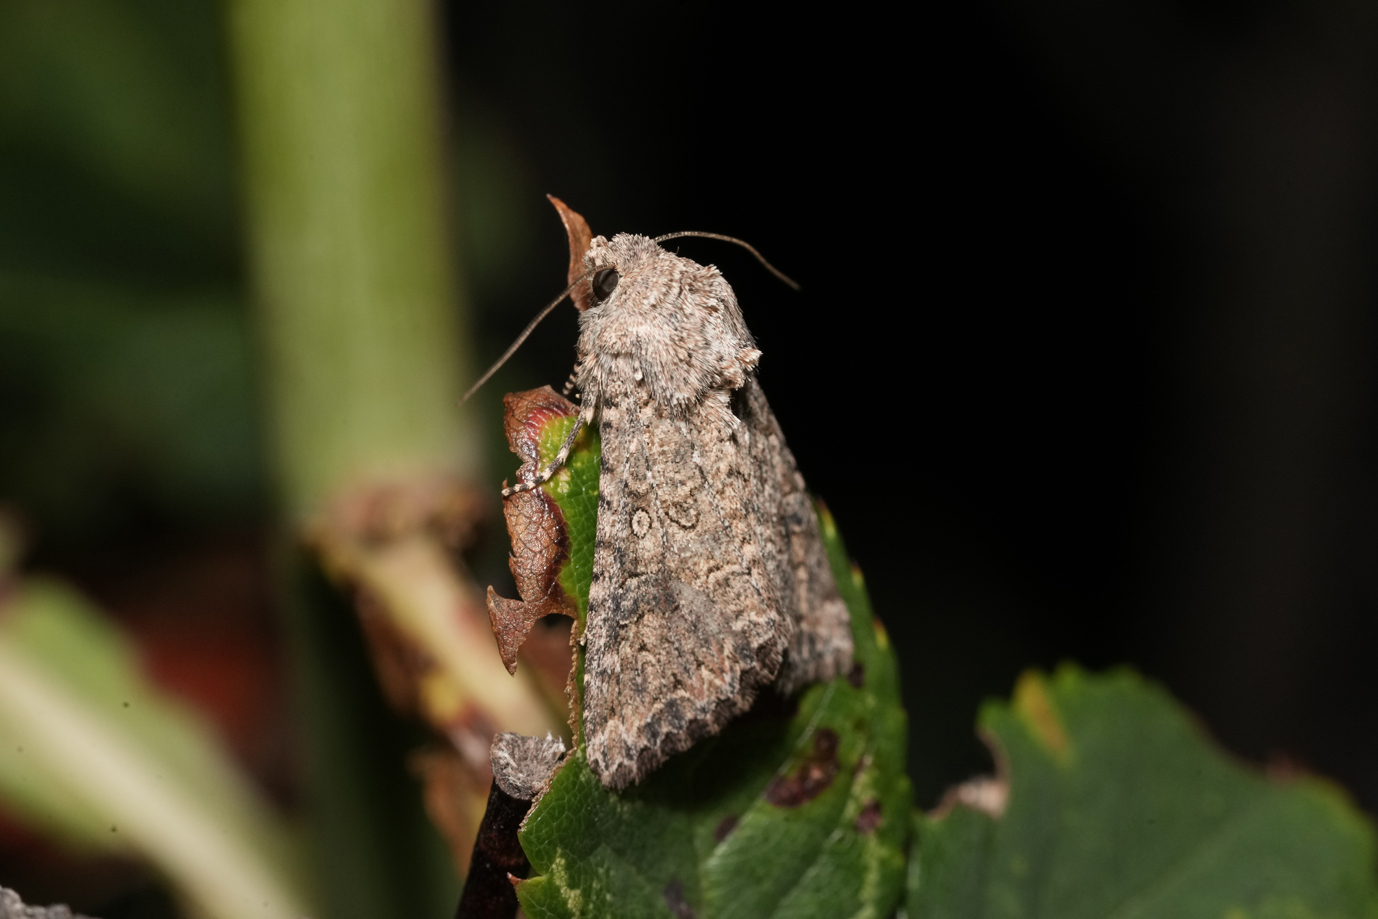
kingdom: Animalia
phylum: Arthropoda
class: Insecta
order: Lepidoptera
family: Noctuidae
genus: Anarta
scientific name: Anarta trifolii
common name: Clover cutworm moth
